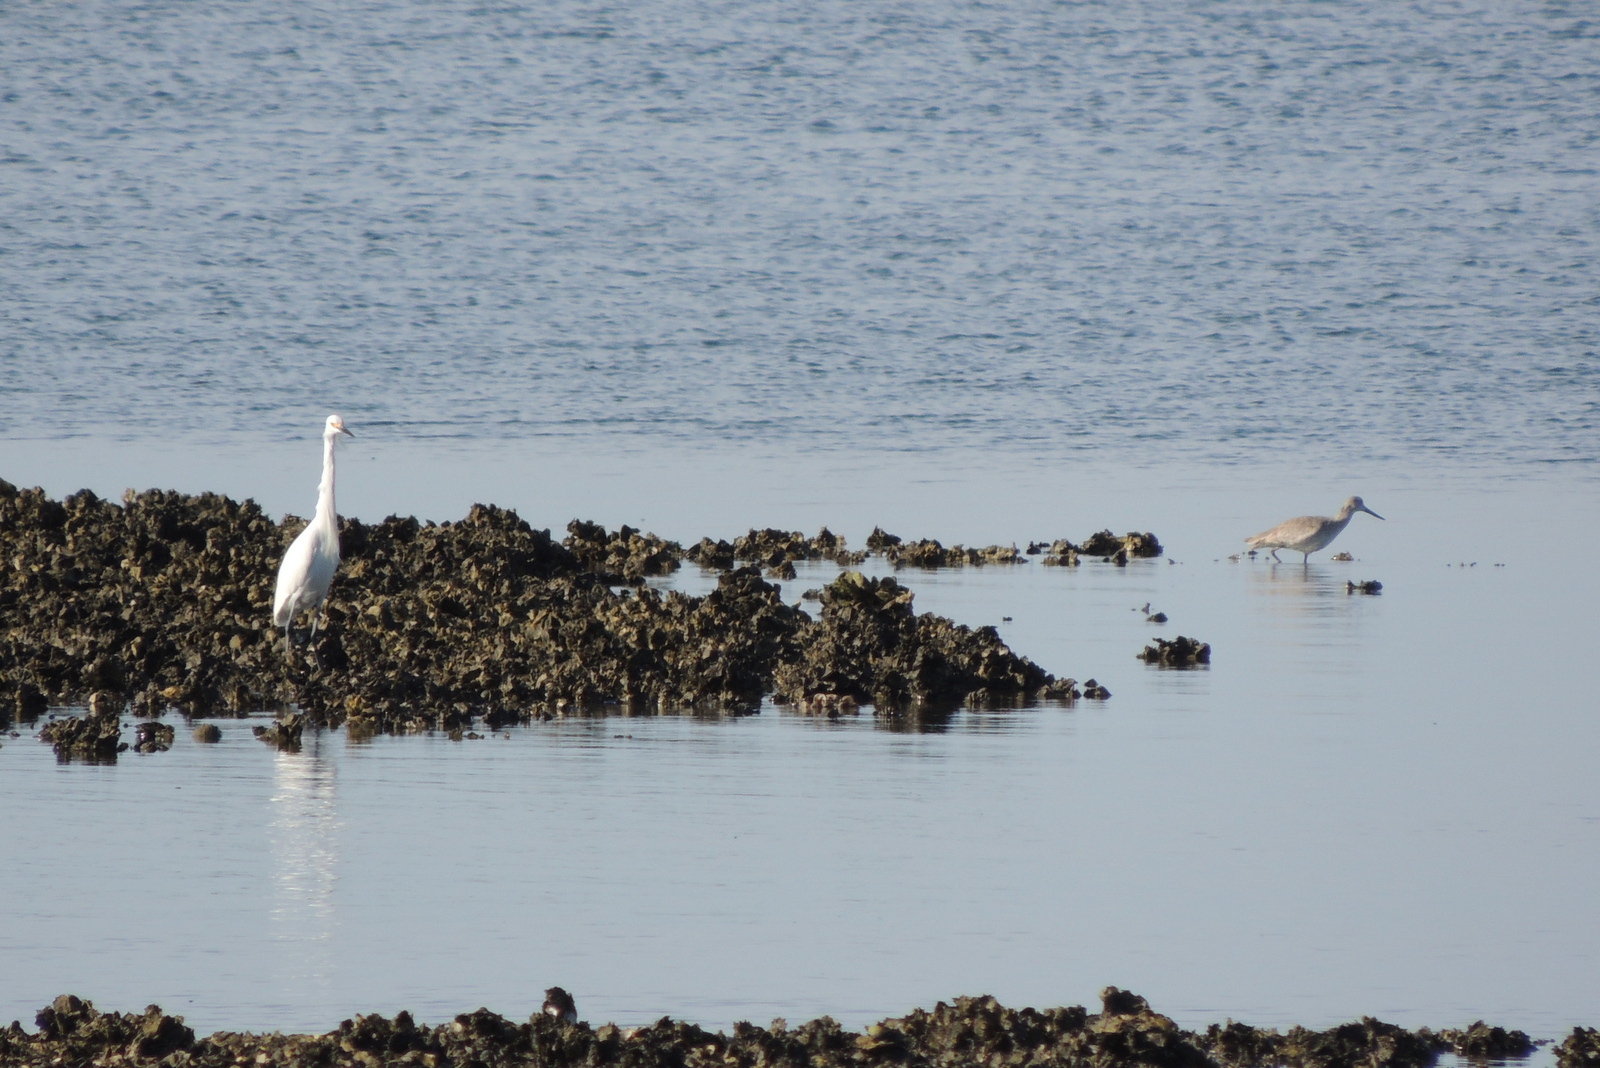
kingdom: Animalia
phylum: Chordata
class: Aves
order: Charadriiformes
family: Scolopacidae
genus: Tringa
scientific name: Tringa semipalmata
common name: Willet
